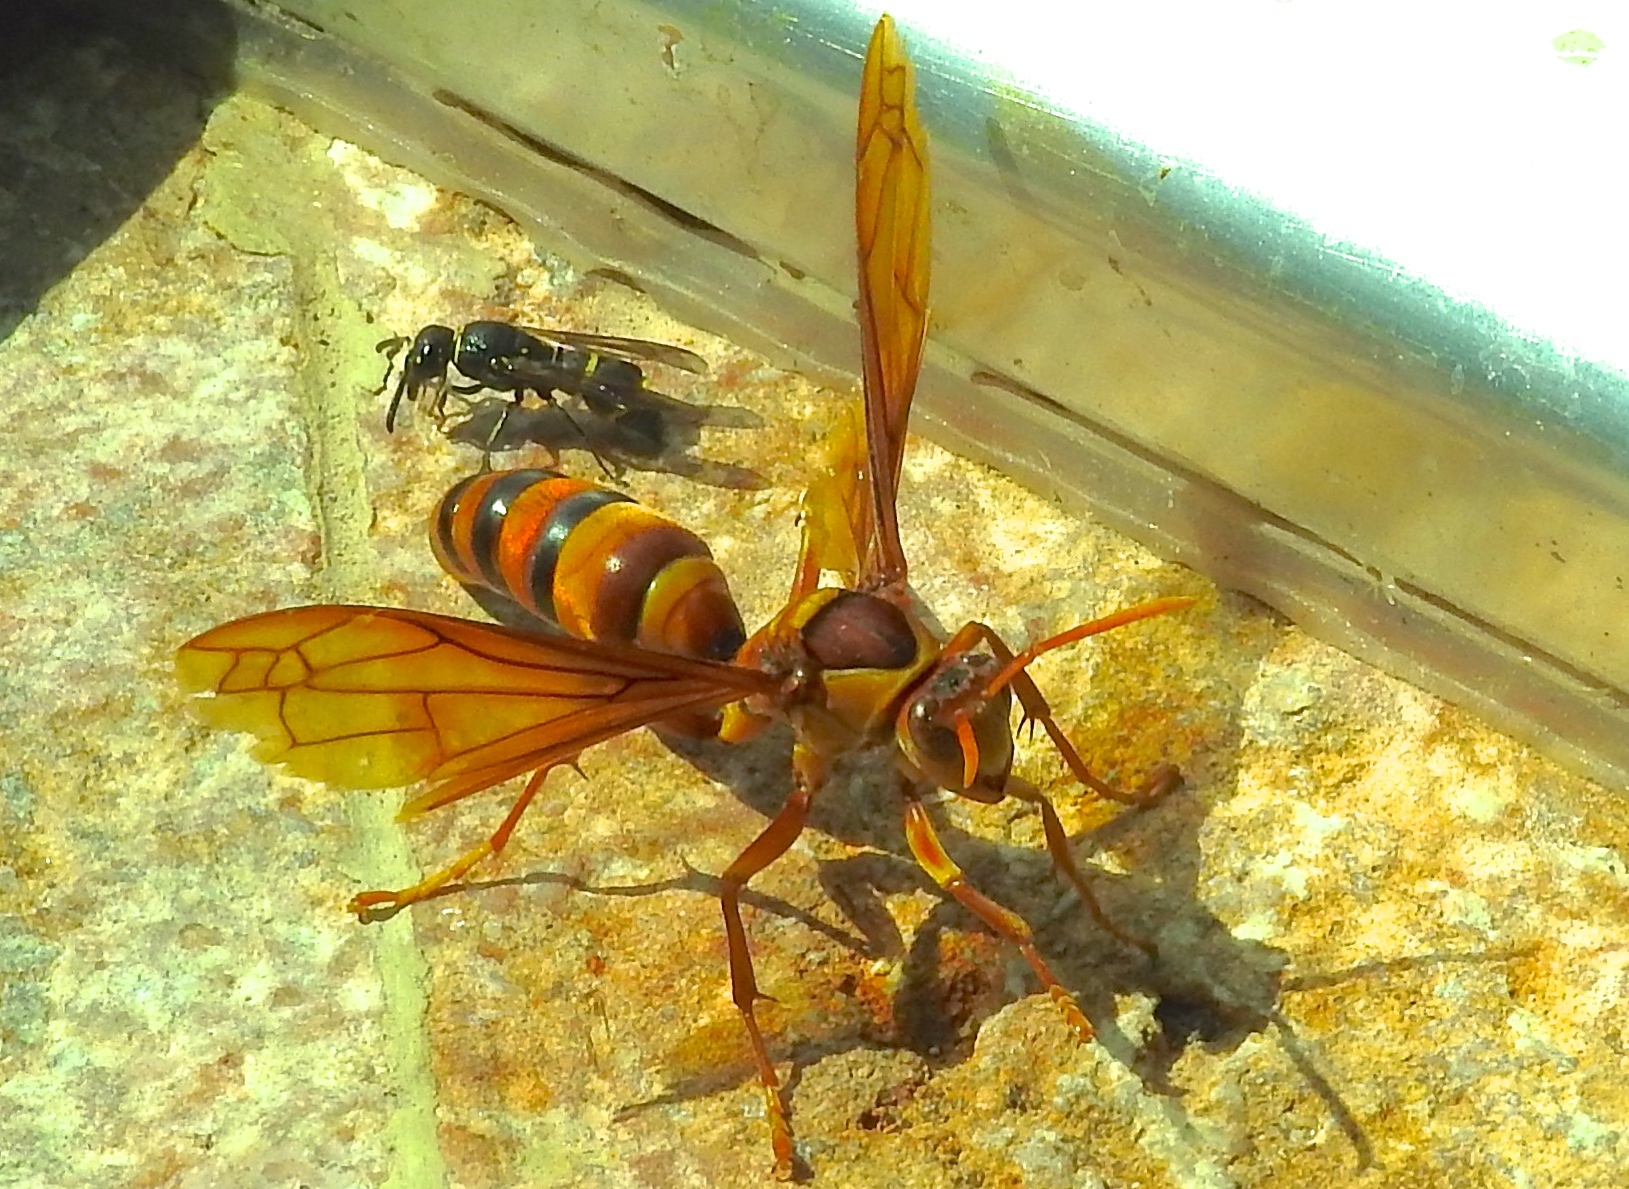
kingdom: Animalia
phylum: Arthropoda
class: Insecta
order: Hymenoptera
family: Eumenidae
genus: Polistes
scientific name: Polistes carnifex
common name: Paper wasp
